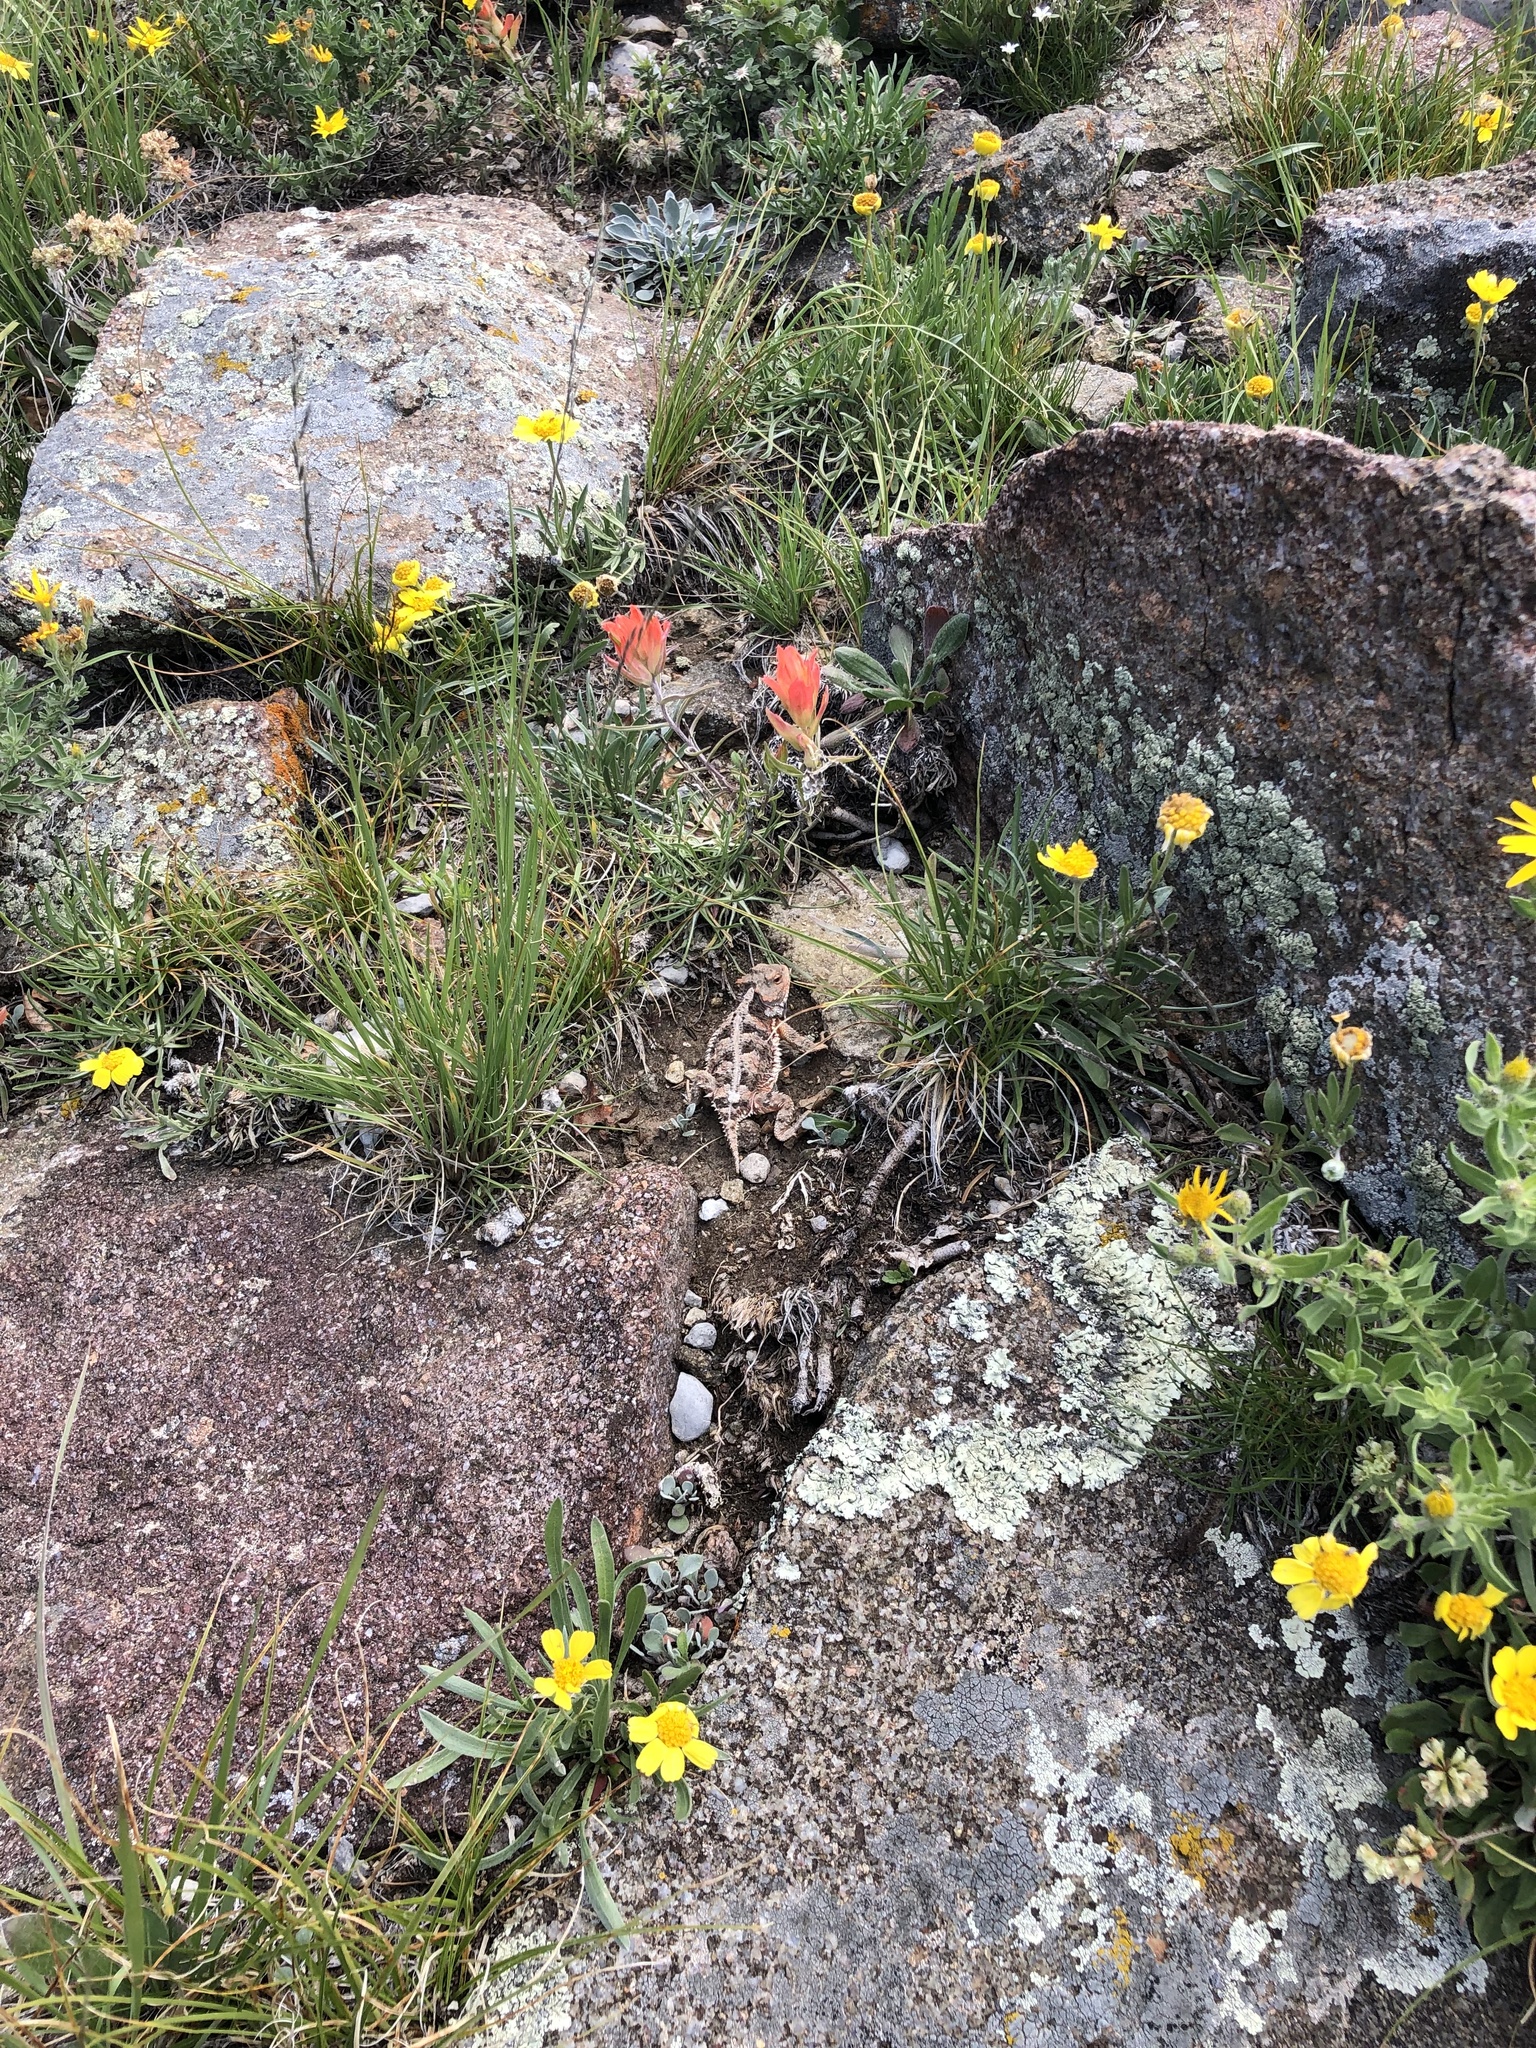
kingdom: Animalia
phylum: Chordata
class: Squamata
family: Phrynosomatidae
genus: Phrynosoma
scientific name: Phrynosoma hernandesi
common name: Greater short-horned lizard
